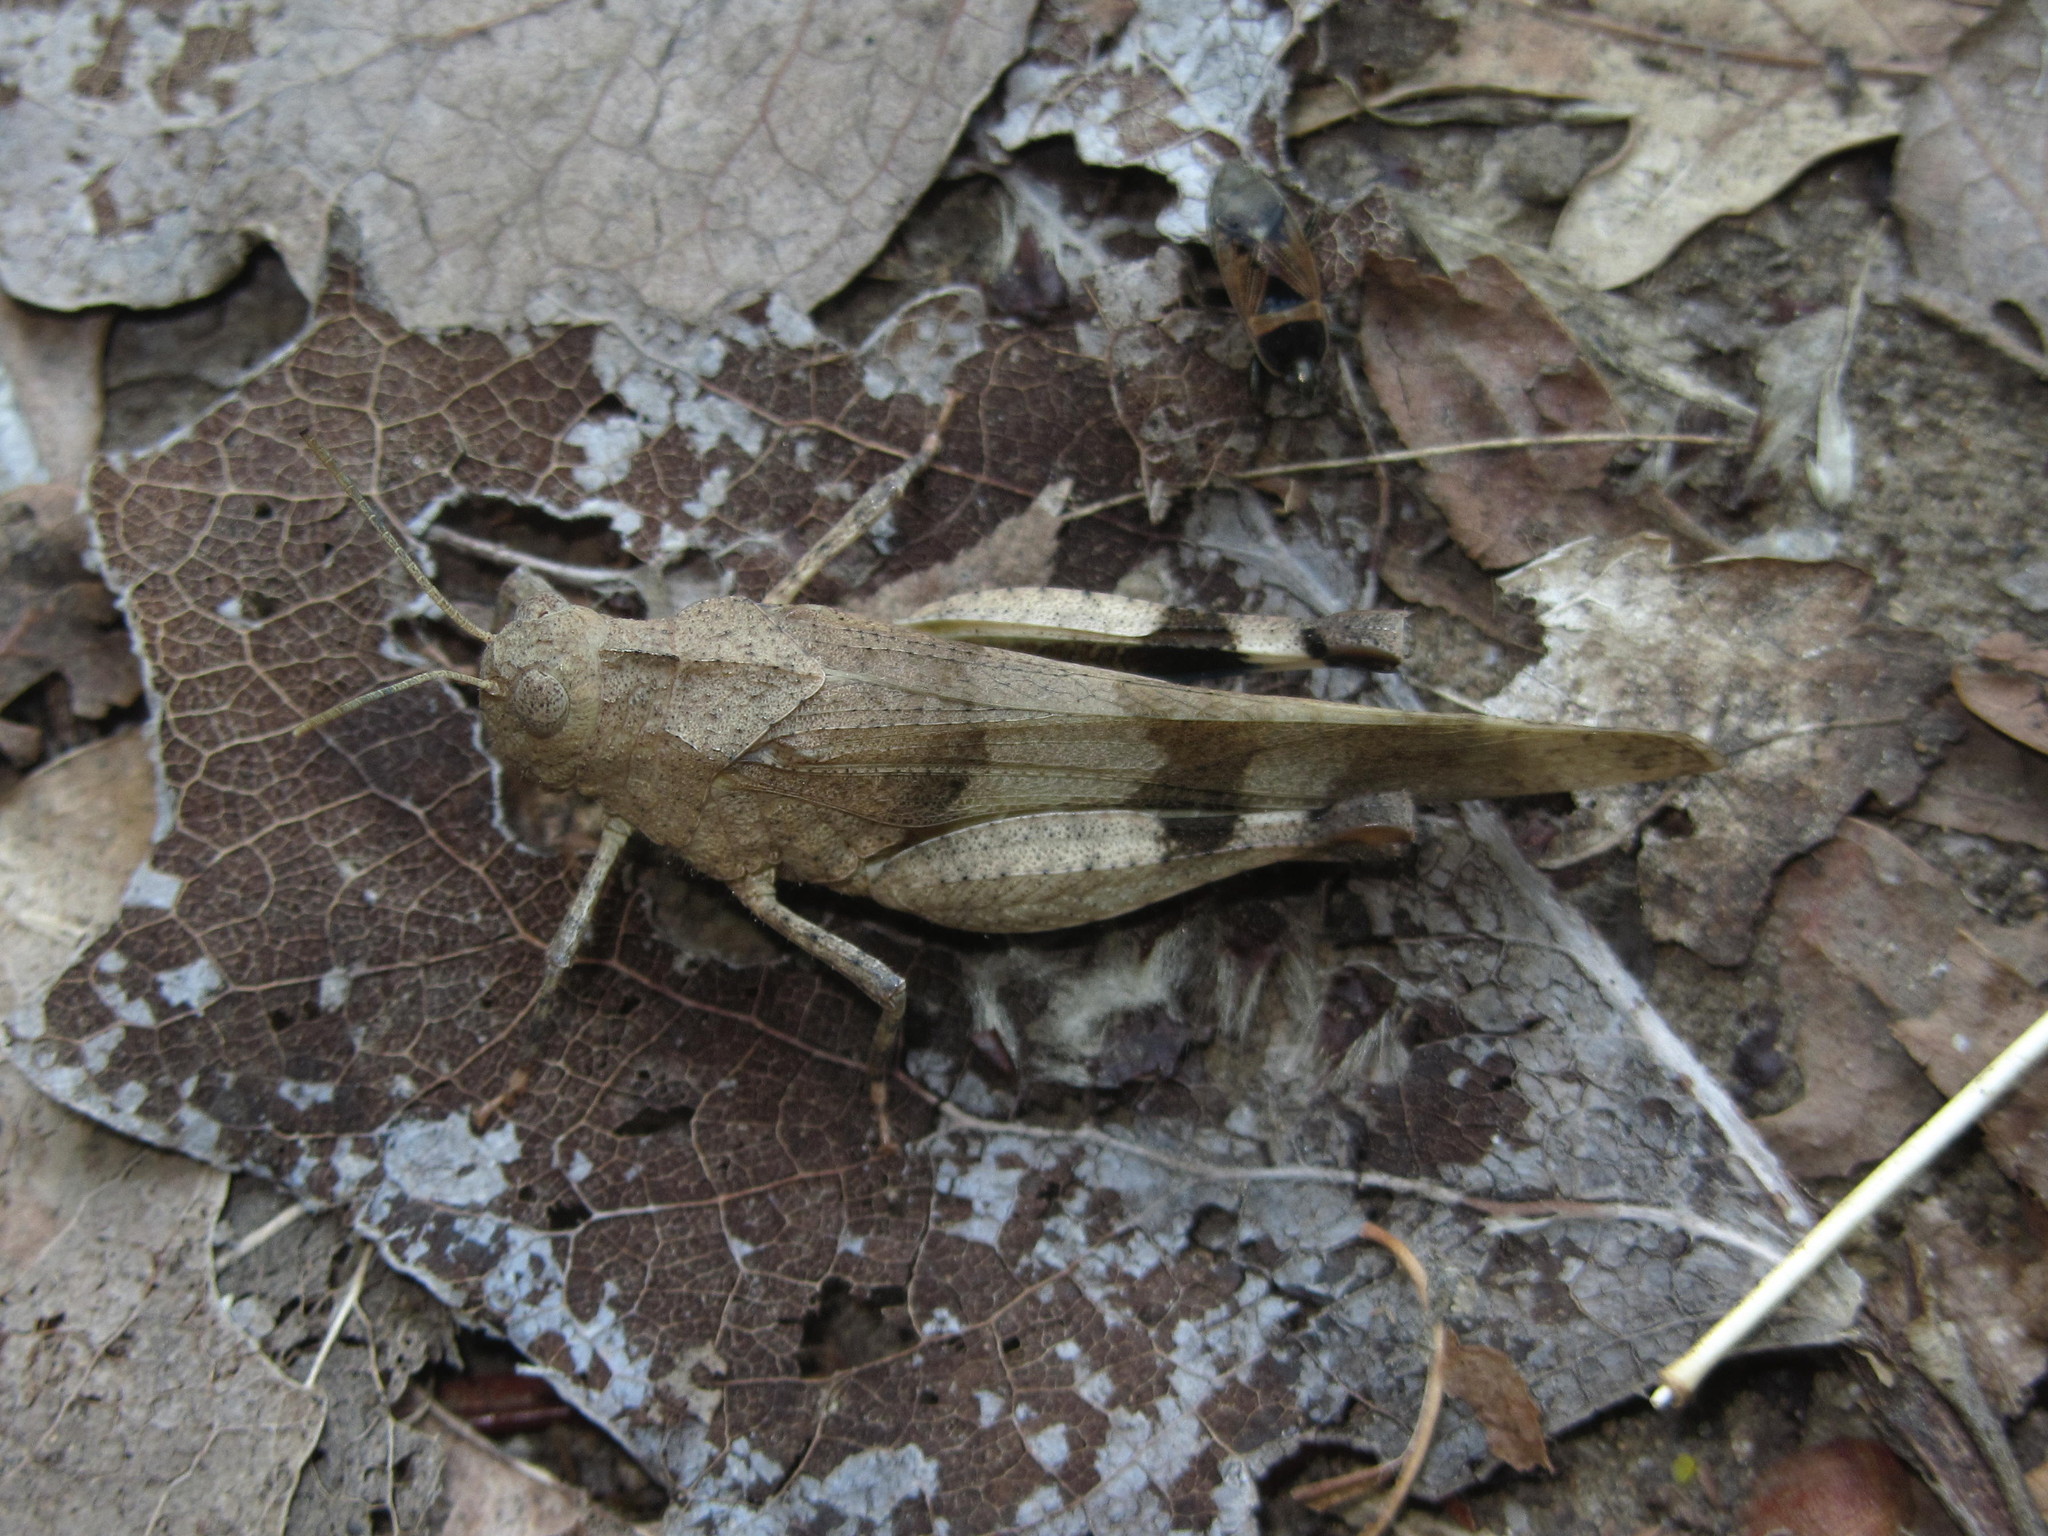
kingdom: Animalia
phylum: Arthropoda
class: Insecta
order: Orthoptera
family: Acrididae
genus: Oedipoda
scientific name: Oedipoda caerulescens
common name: Blue-winged grasshopper
